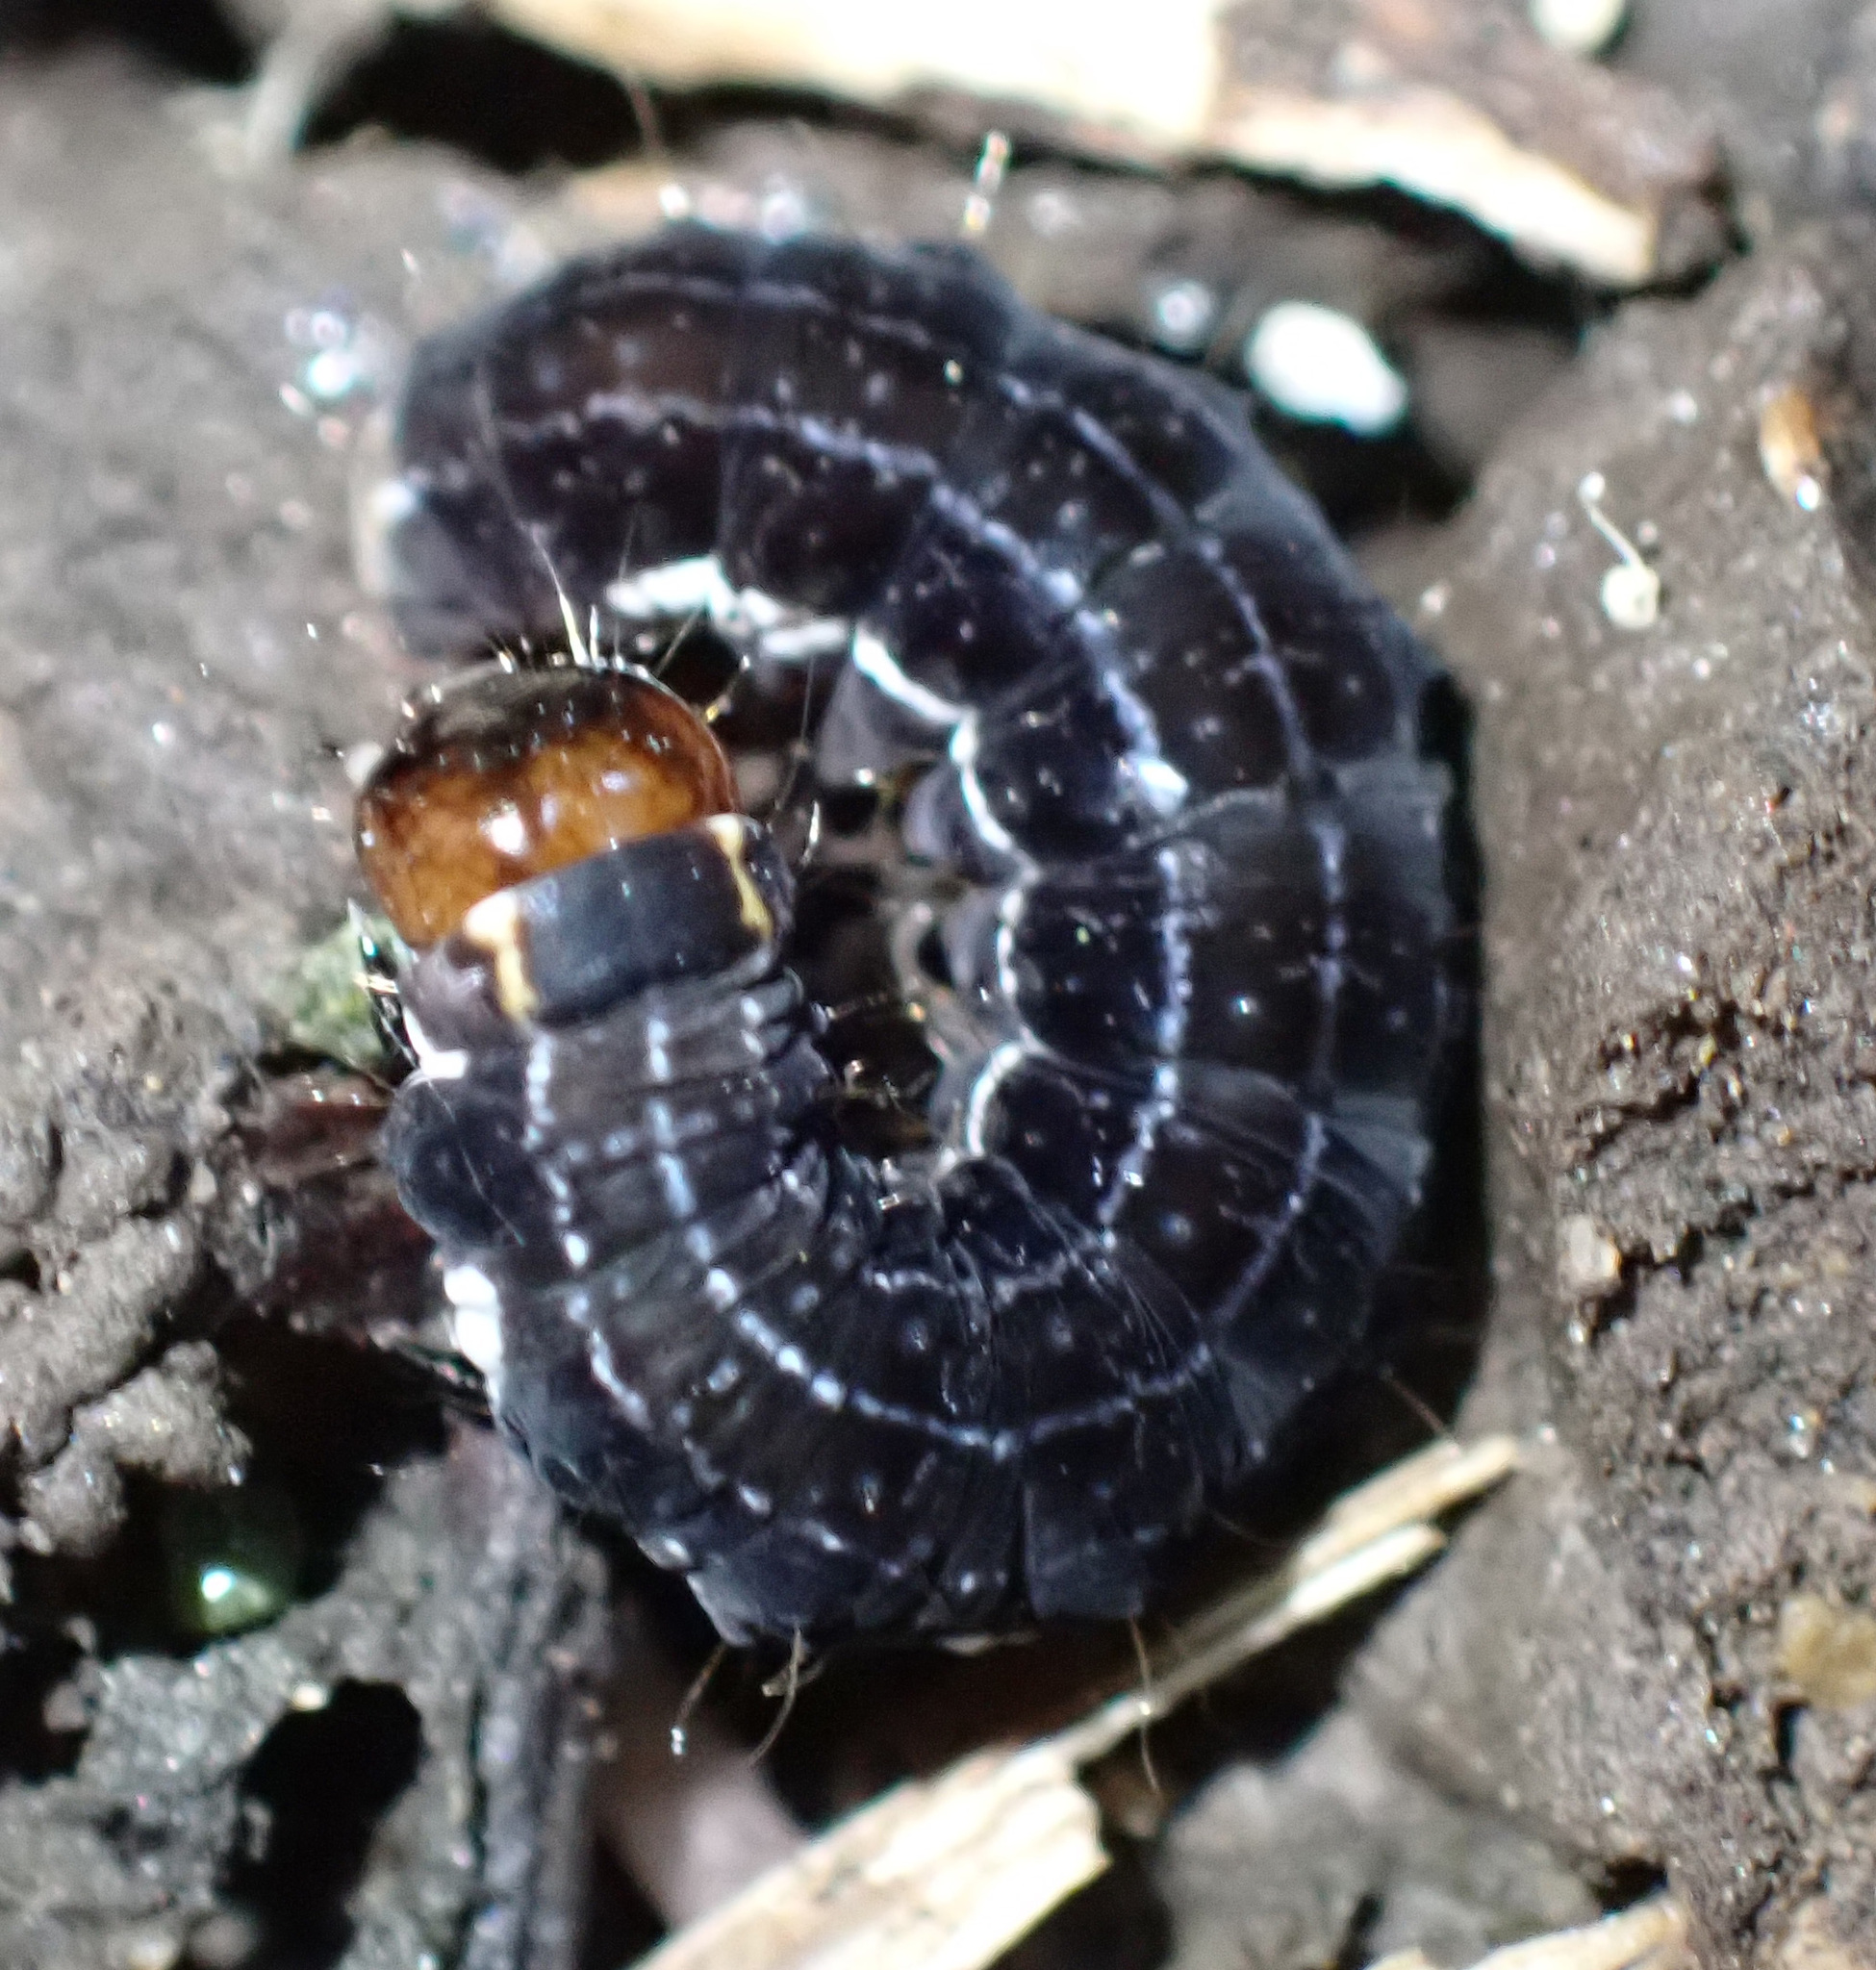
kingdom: Animalia
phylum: Arthropoda
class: Insecta
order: Lepidoptera
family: Noctuidae
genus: Eupsilia
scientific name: Eupsilia transversa
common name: Satellite
